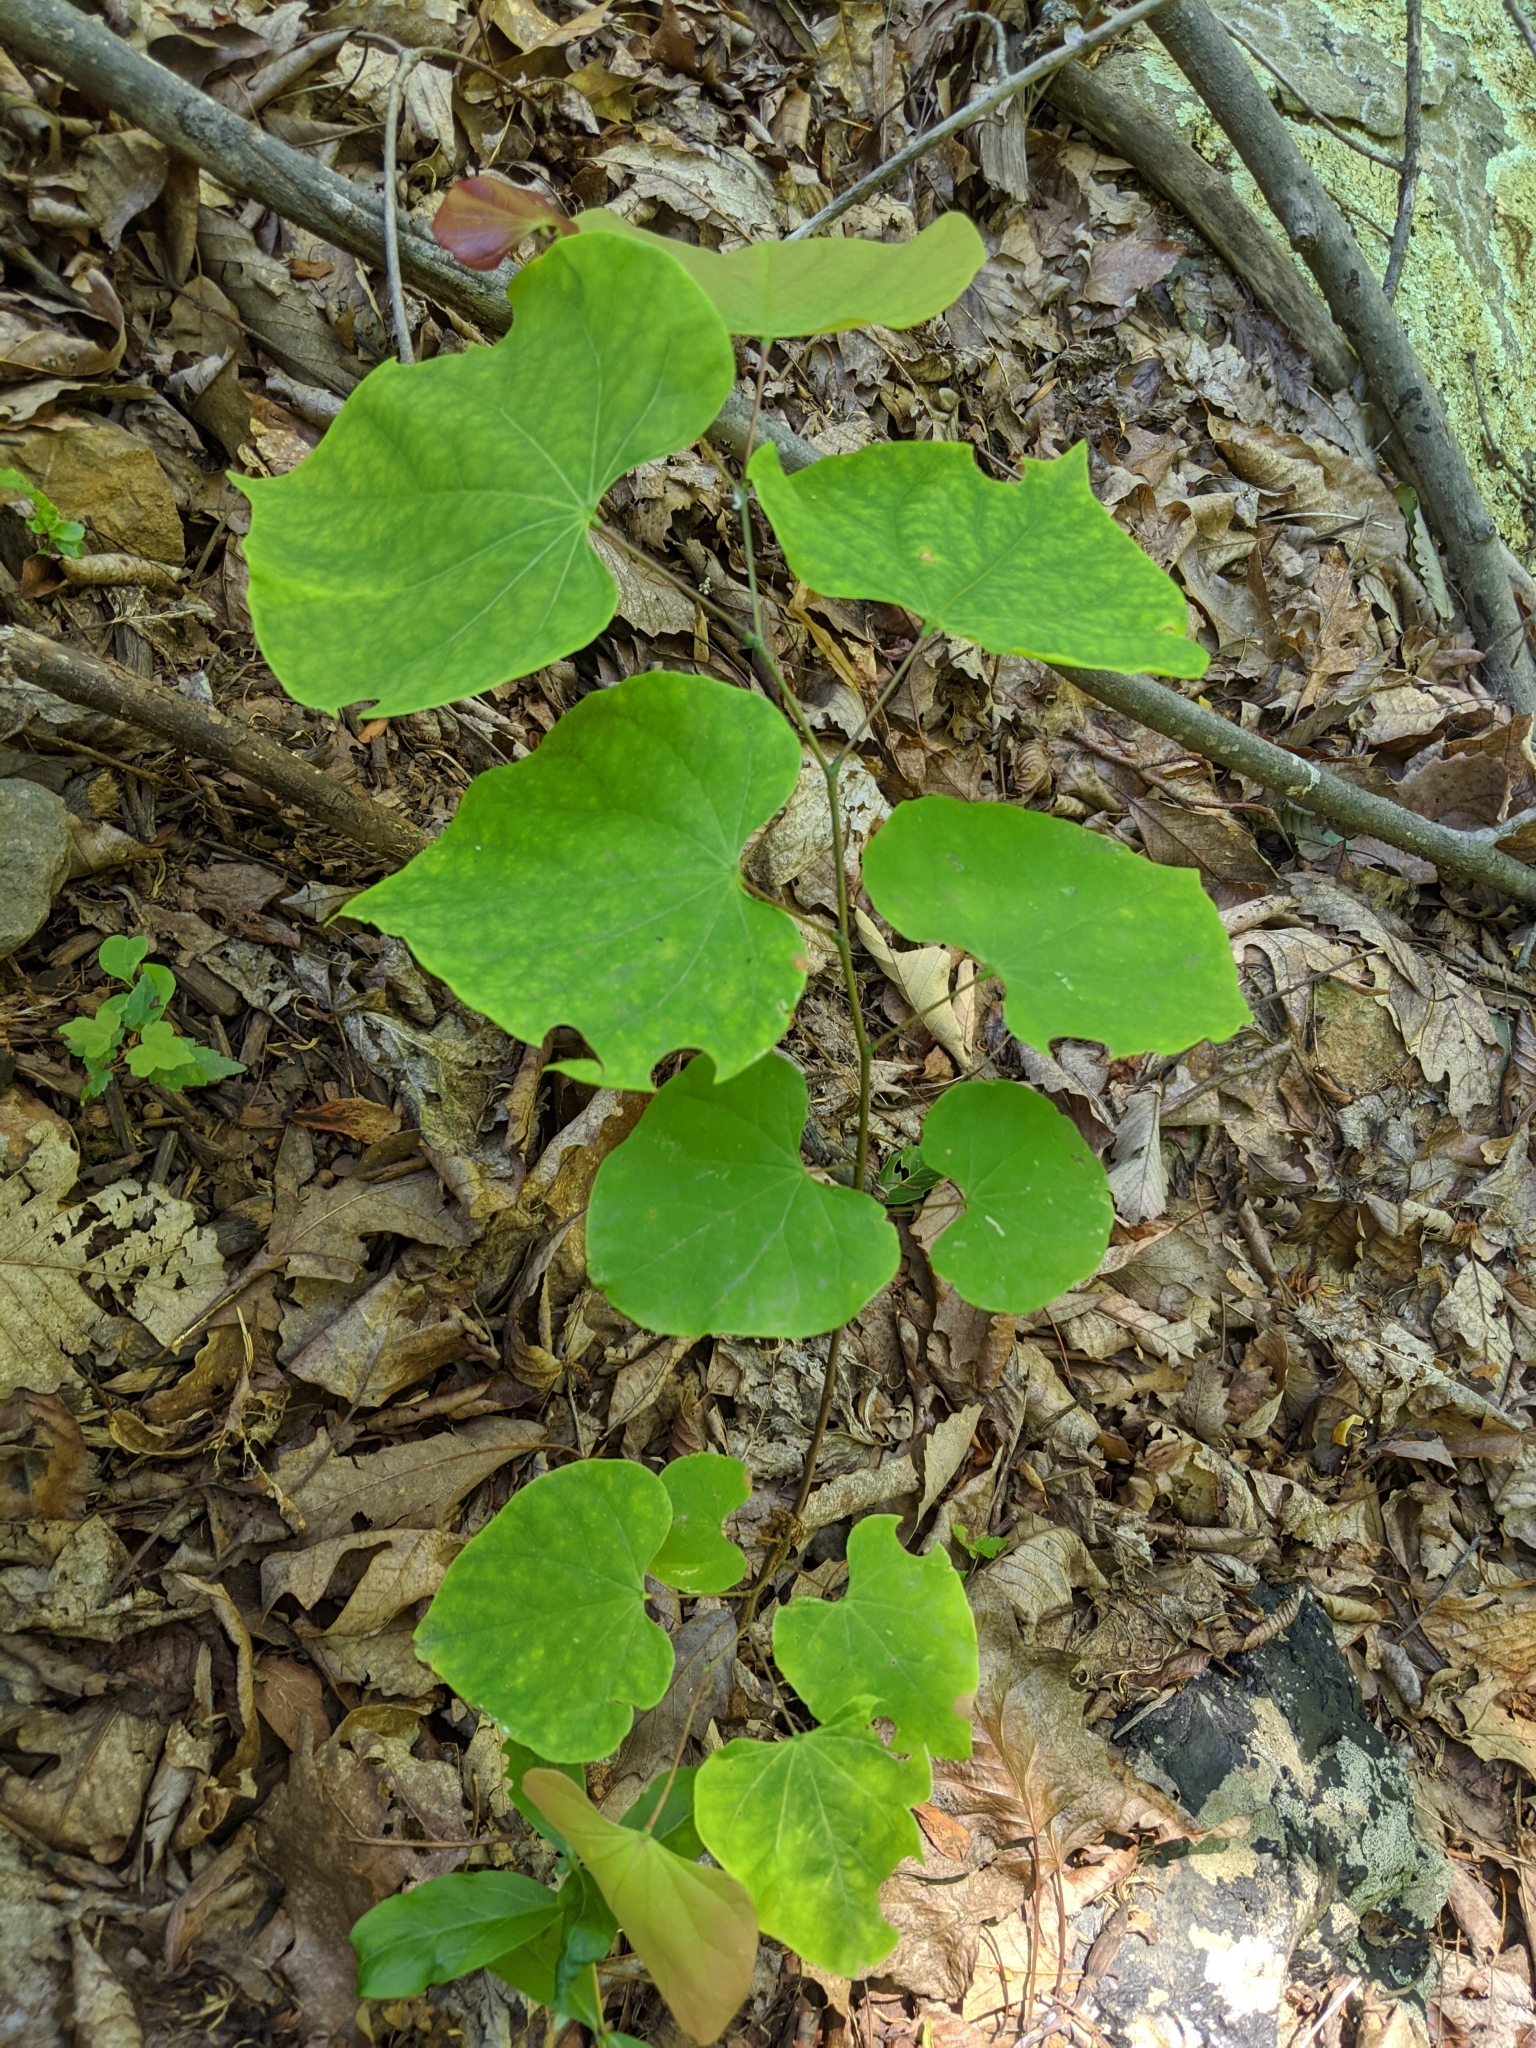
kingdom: Plantae
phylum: Tracheophyta
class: Magnoliopsida
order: Fabales
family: Fabaceae
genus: Cercis
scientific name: Cercis canadensis
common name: Eastern redbud
